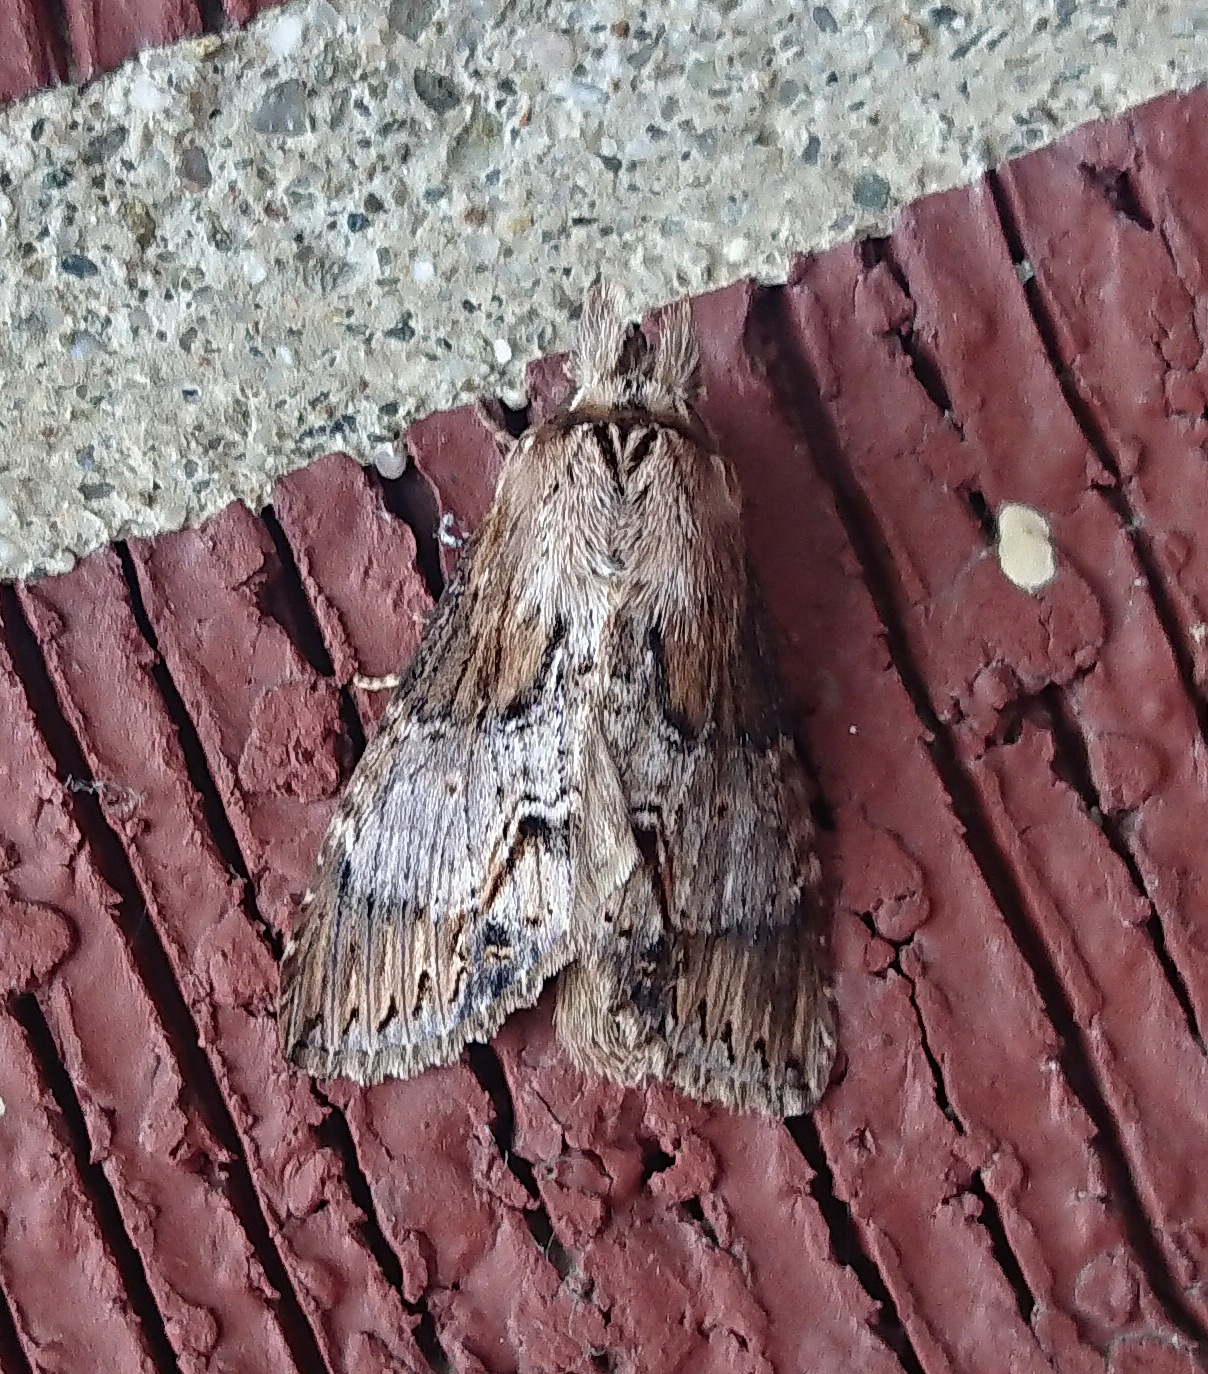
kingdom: Animalia
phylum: Arthropoda
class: Insecta
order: Lepidoptera
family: Notodontidae
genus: Dasylophia
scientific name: Dasylophia thyatiroides
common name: Gray-patched prominent
